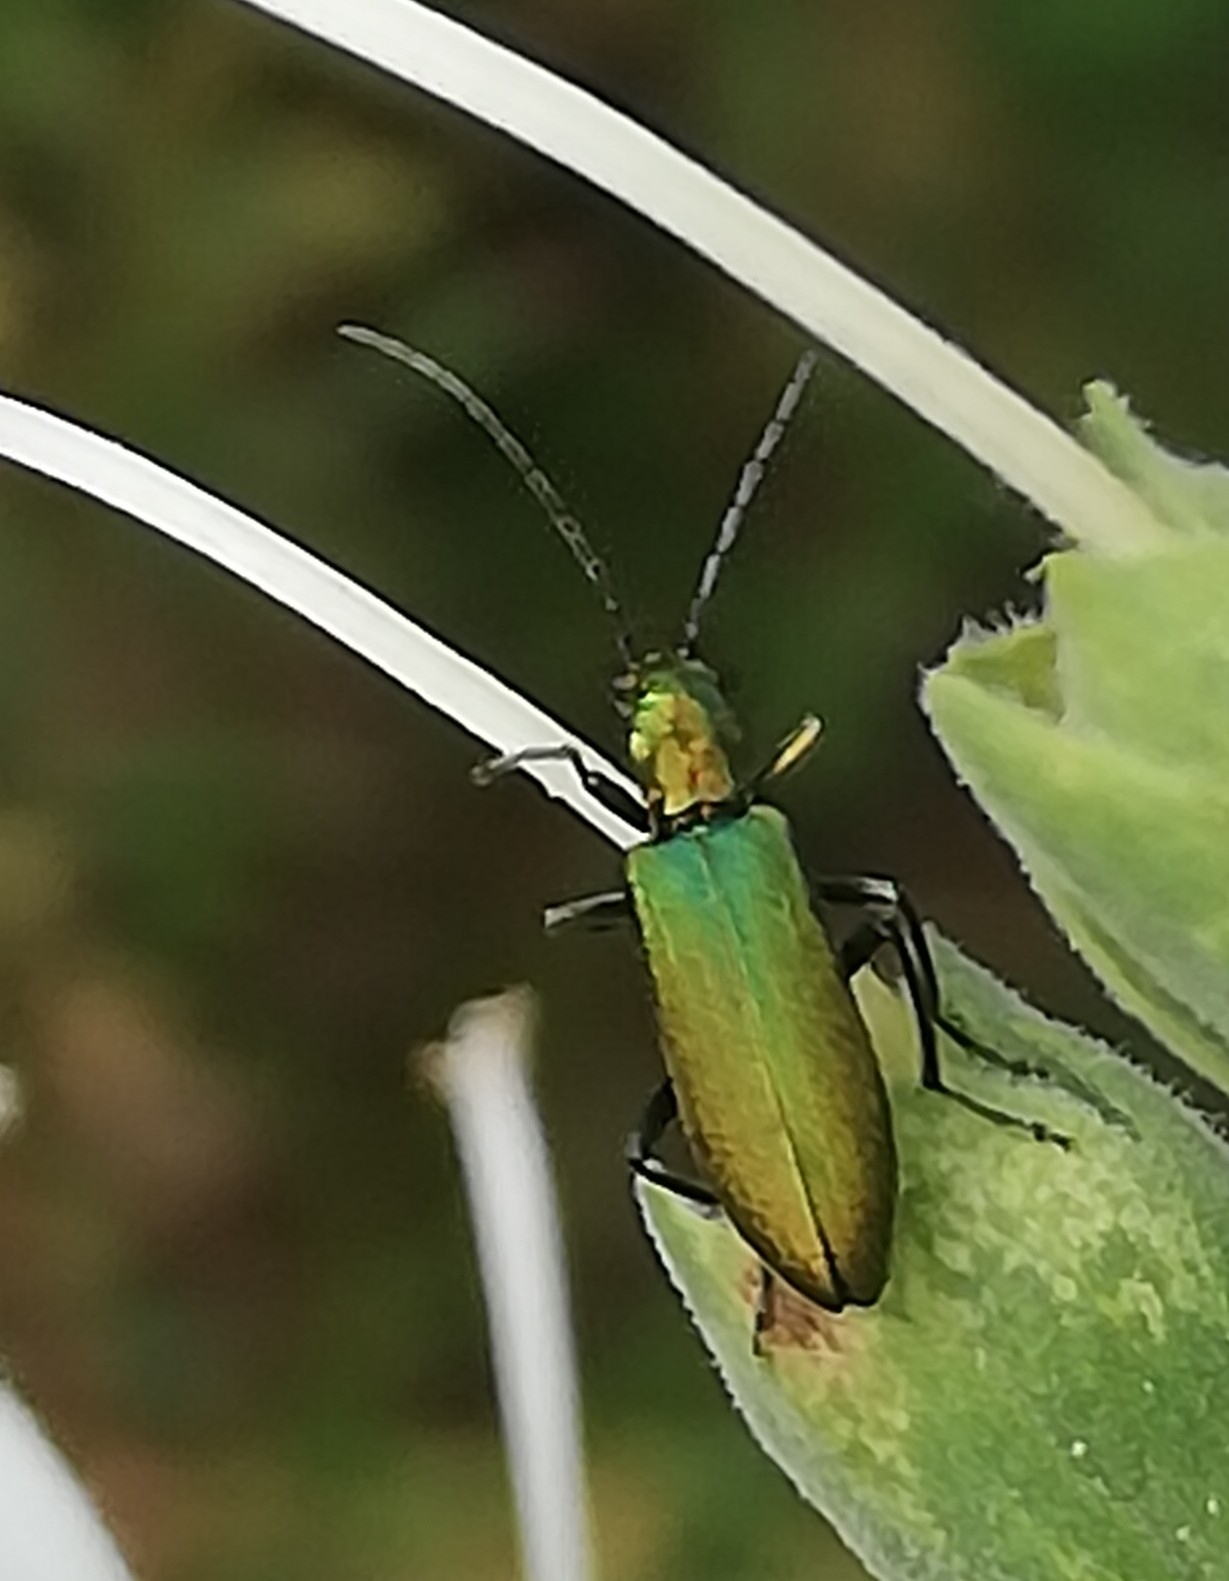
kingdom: Animalia
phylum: Arthropoda
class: Insecta
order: Coleoptera
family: Oedemeridae
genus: Chrysanthia
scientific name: Chrysanthia viridissima
